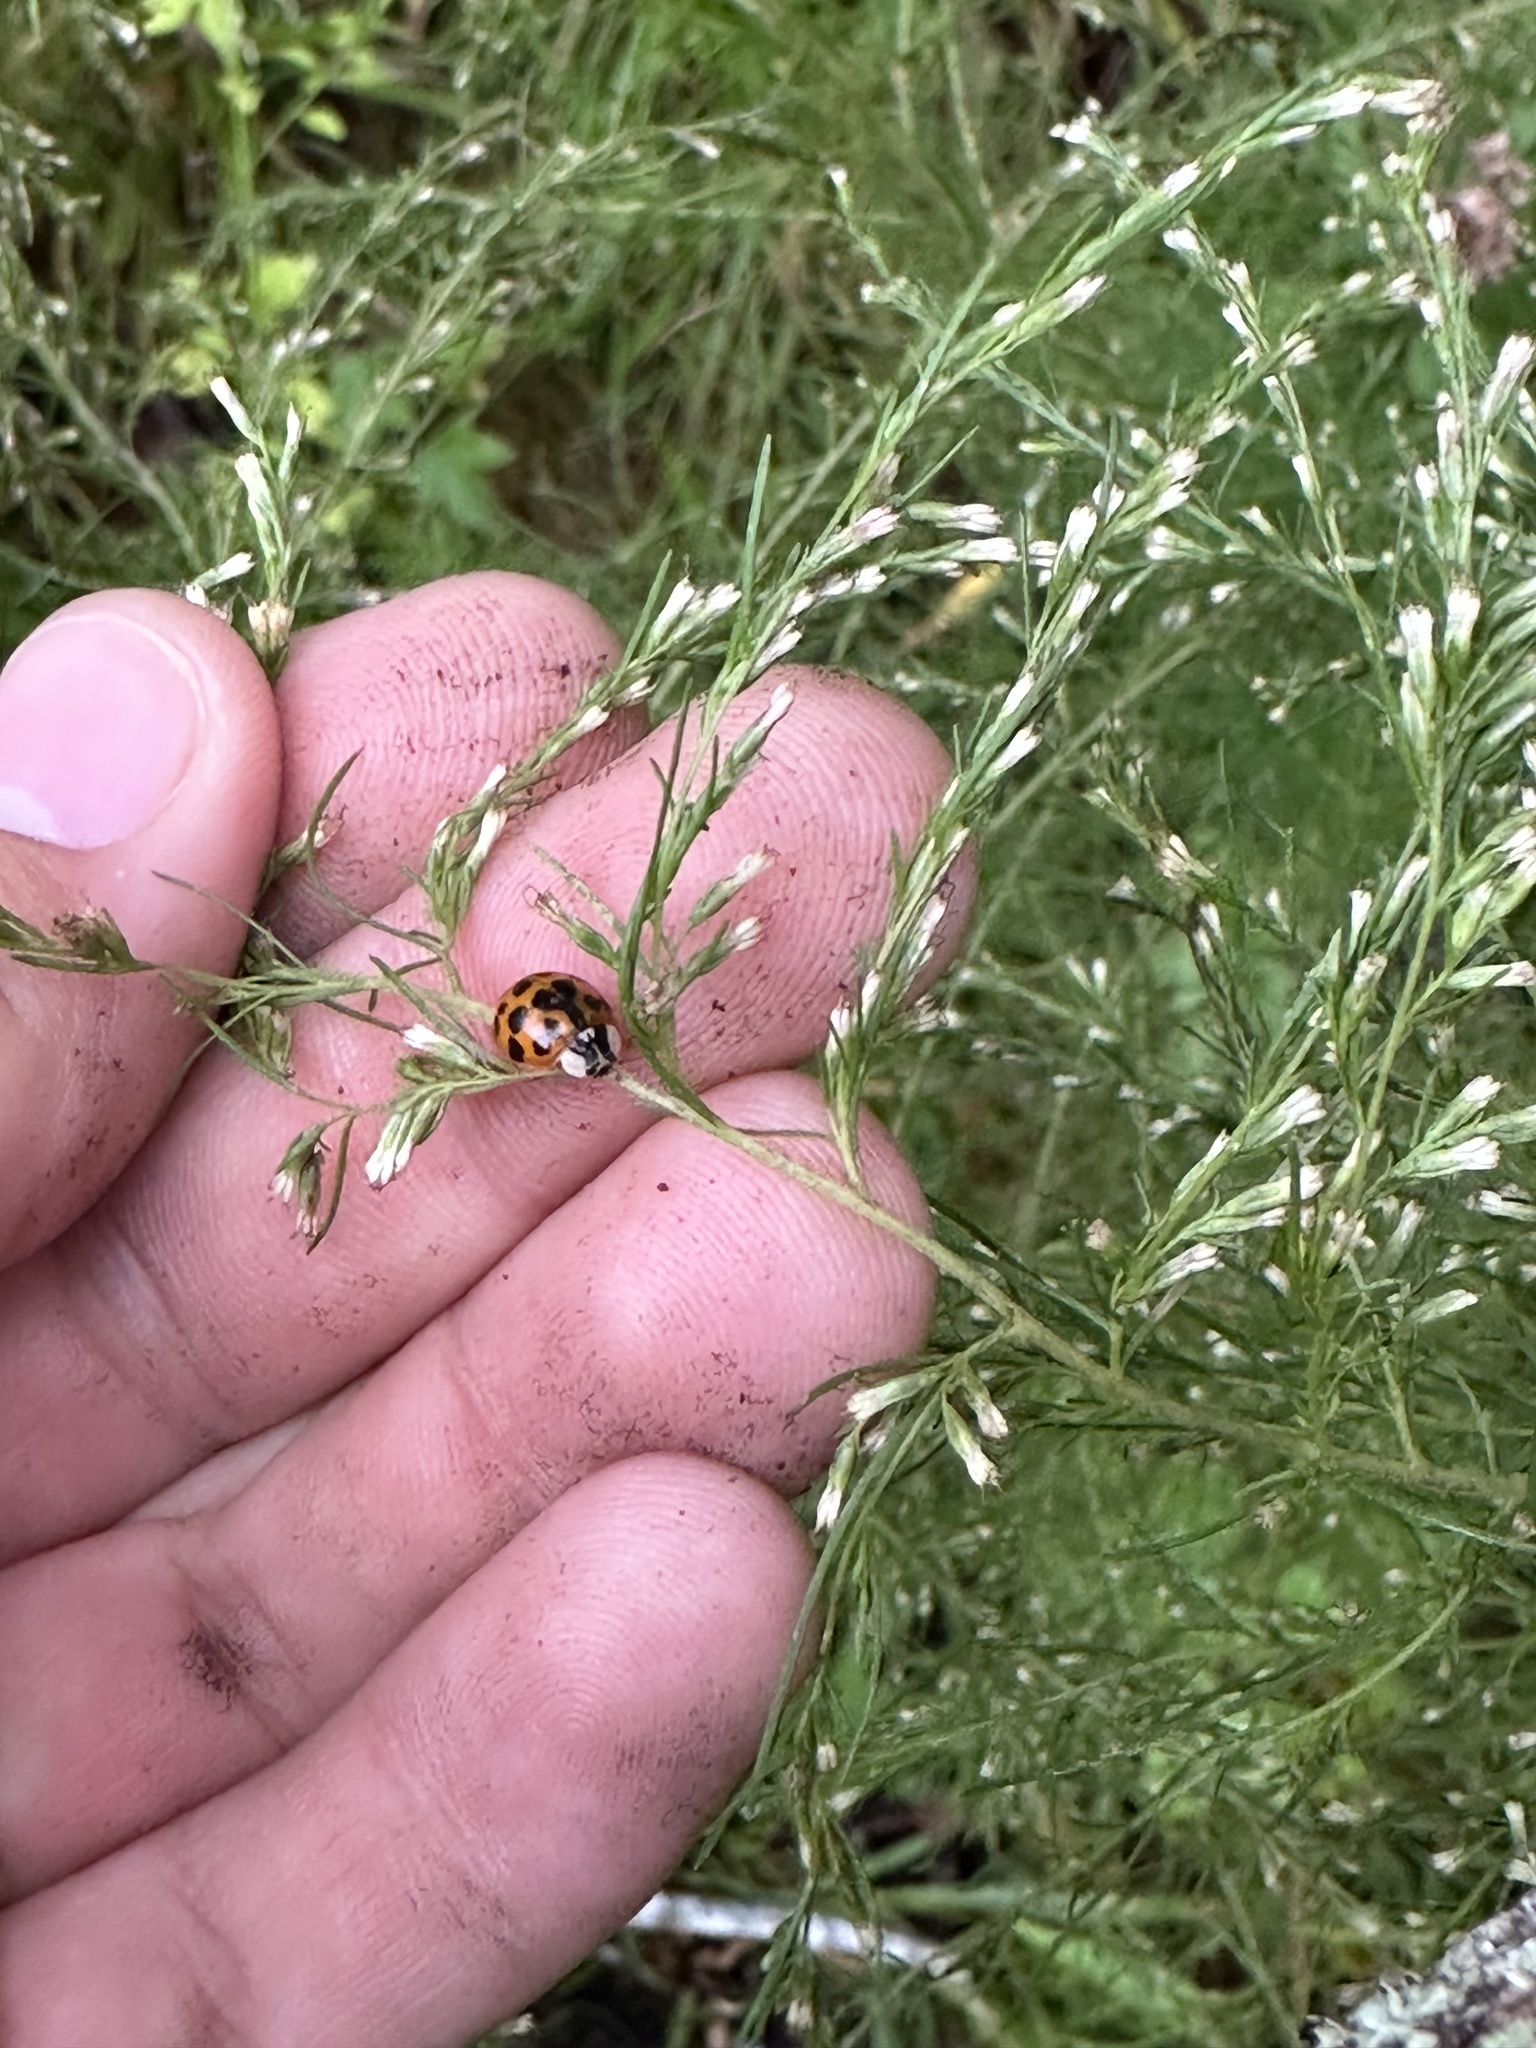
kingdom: Animalia
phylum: Arthropoda
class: Insecta
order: Coleoptera
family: Coccinellidae
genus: Harmonia
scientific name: Harmonia axyridis
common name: Harlequin ladybird
